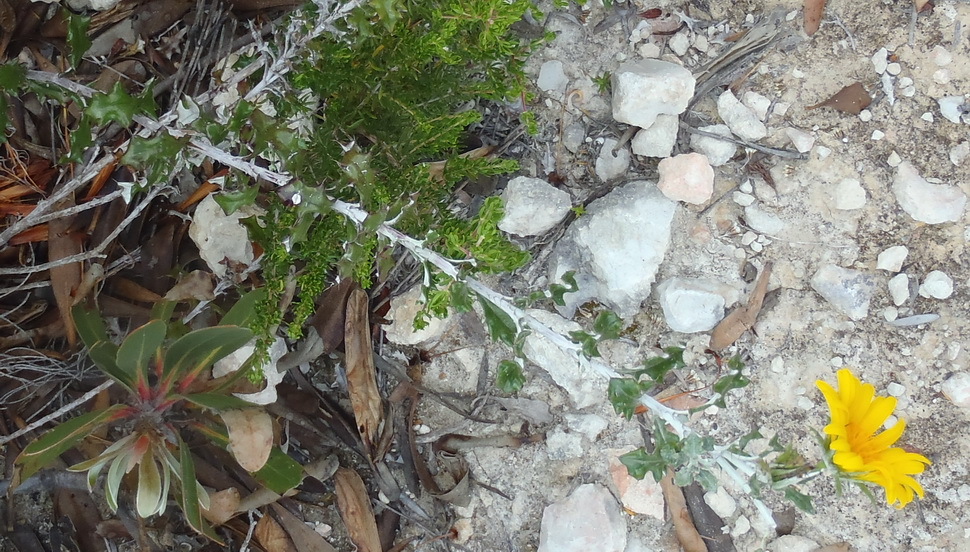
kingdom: Plantae
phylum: Tracheophyta
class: Magnoliopsida
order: Asterales
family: Asteraceae
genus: Berkheya
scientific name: Berkheya coriacea
